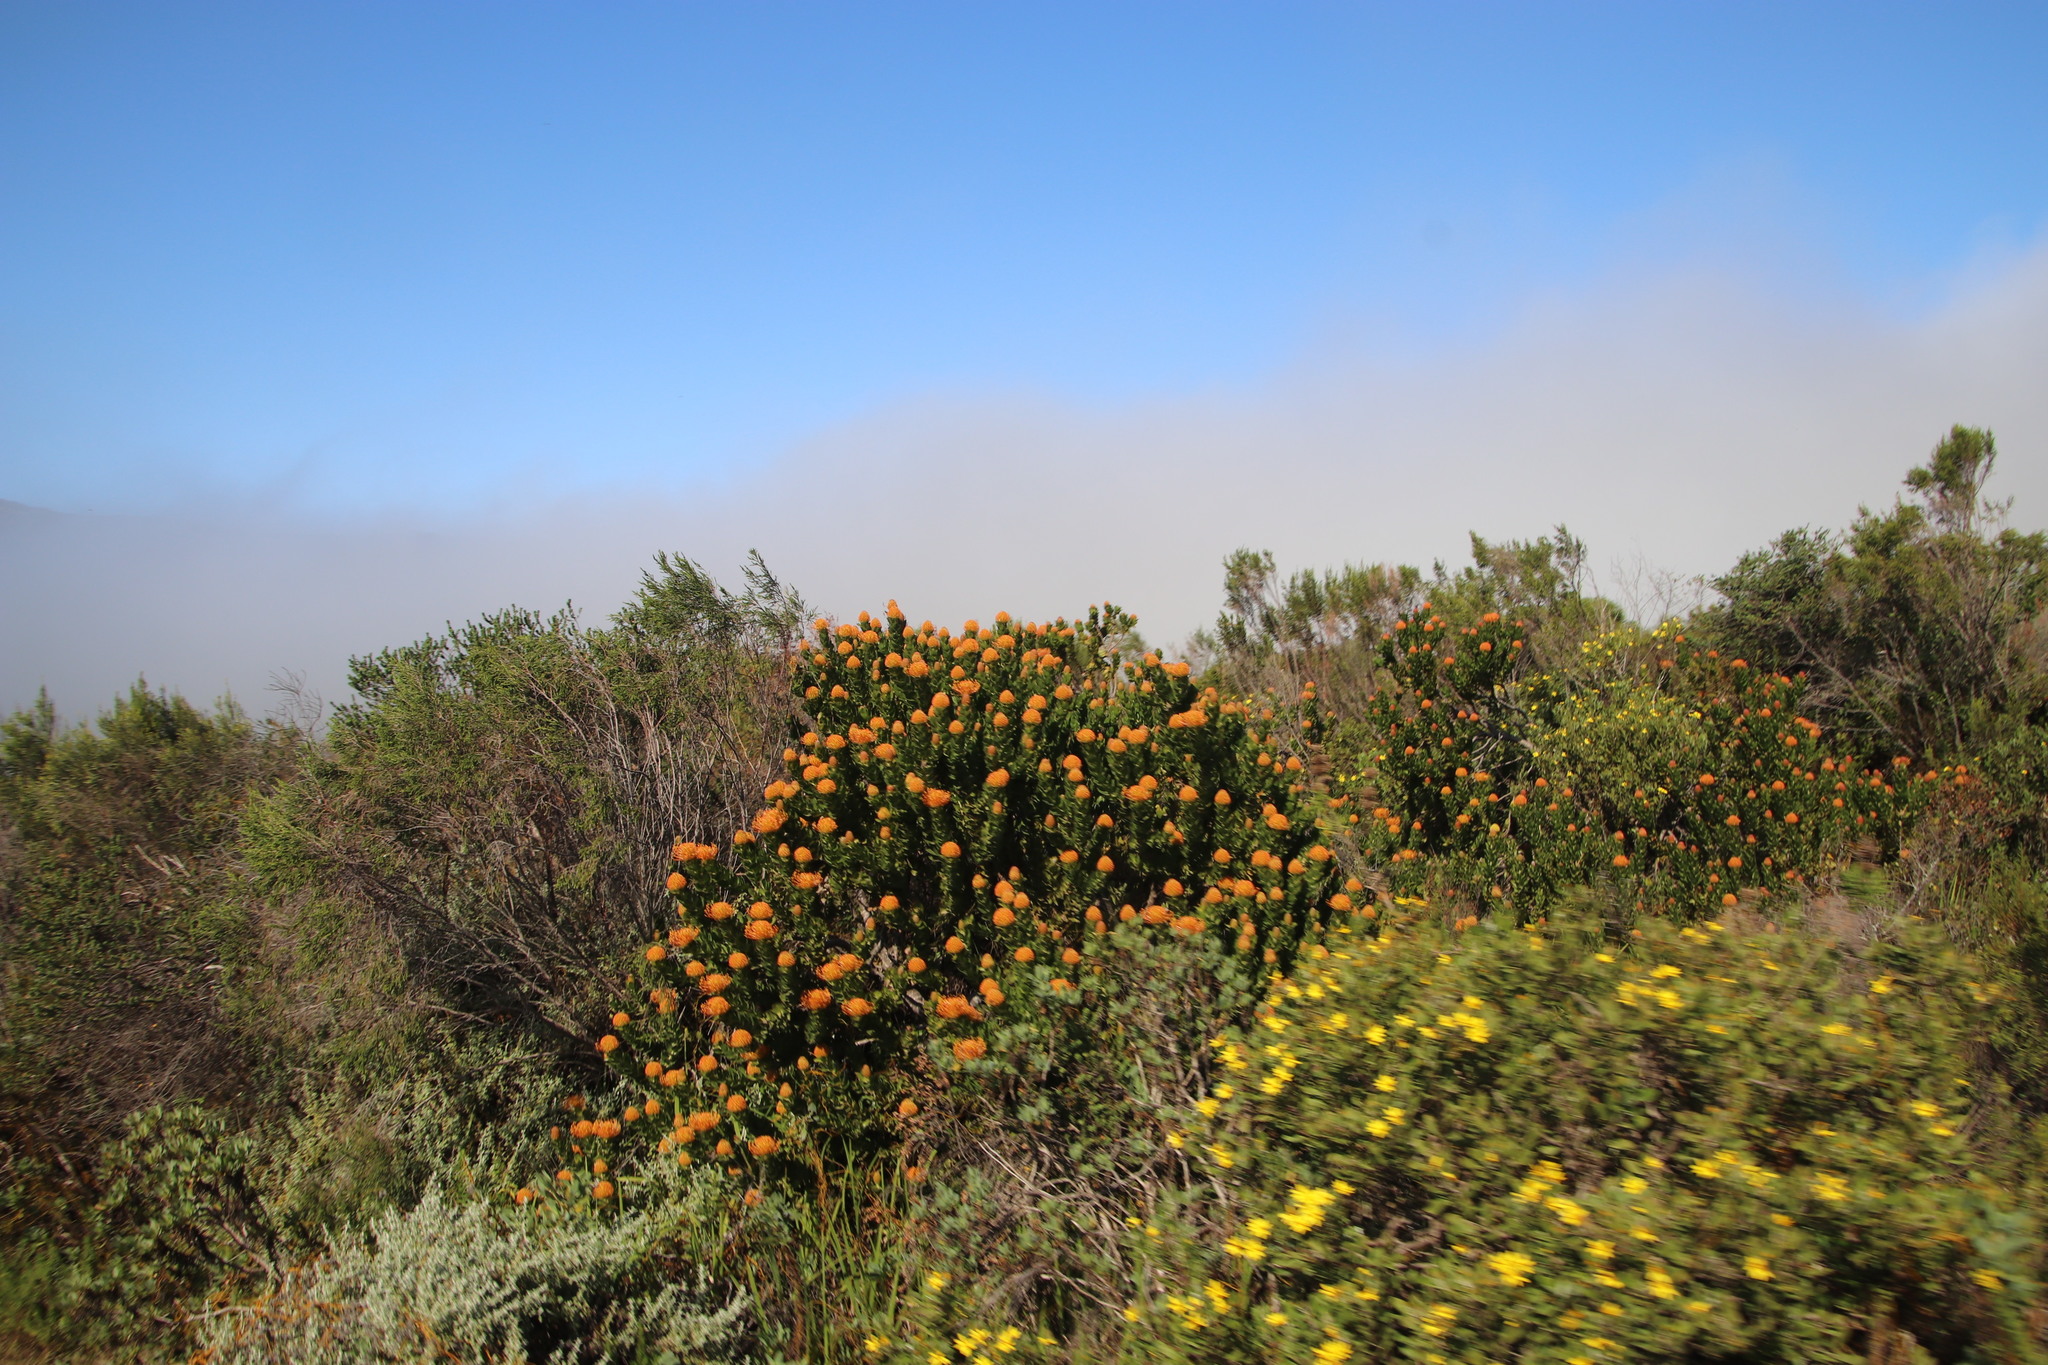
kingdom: Plantae
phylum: Tracheophyta
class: Magnoliopsida
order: Proteales
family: Proteaceae
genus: Leucospermum
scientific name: Leucospermum patersonii
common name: False tree pincushion
